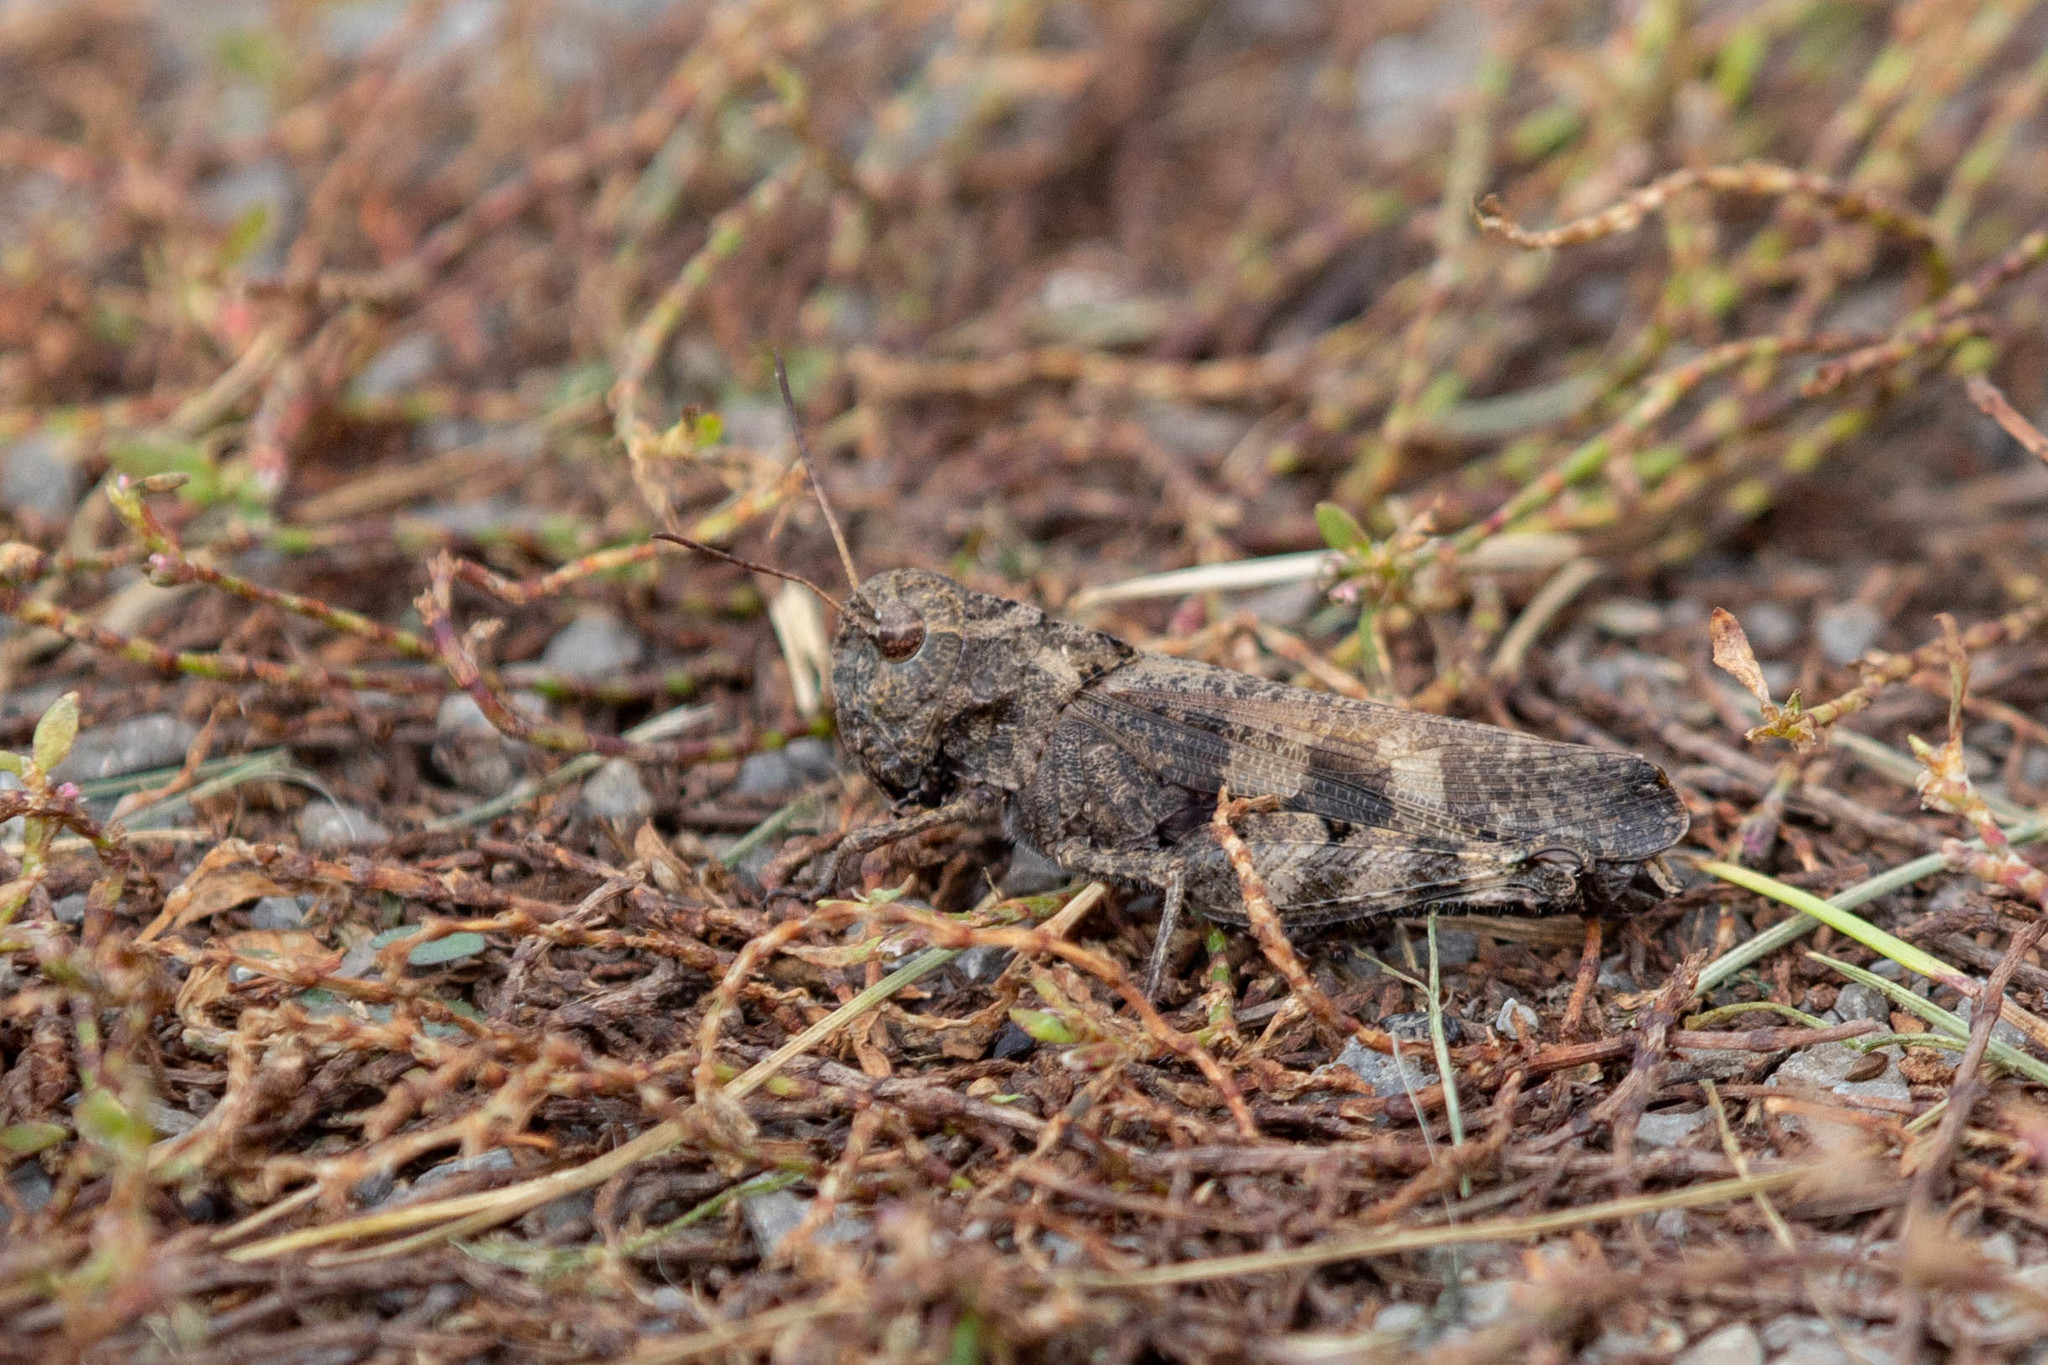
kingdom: Animalia
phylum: Arthropoda
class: Insecta
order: Orthoptera
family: Acrididae
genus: Encoptolophus
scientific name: Encoptolophus sordidus
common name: Dusky grasshopper
